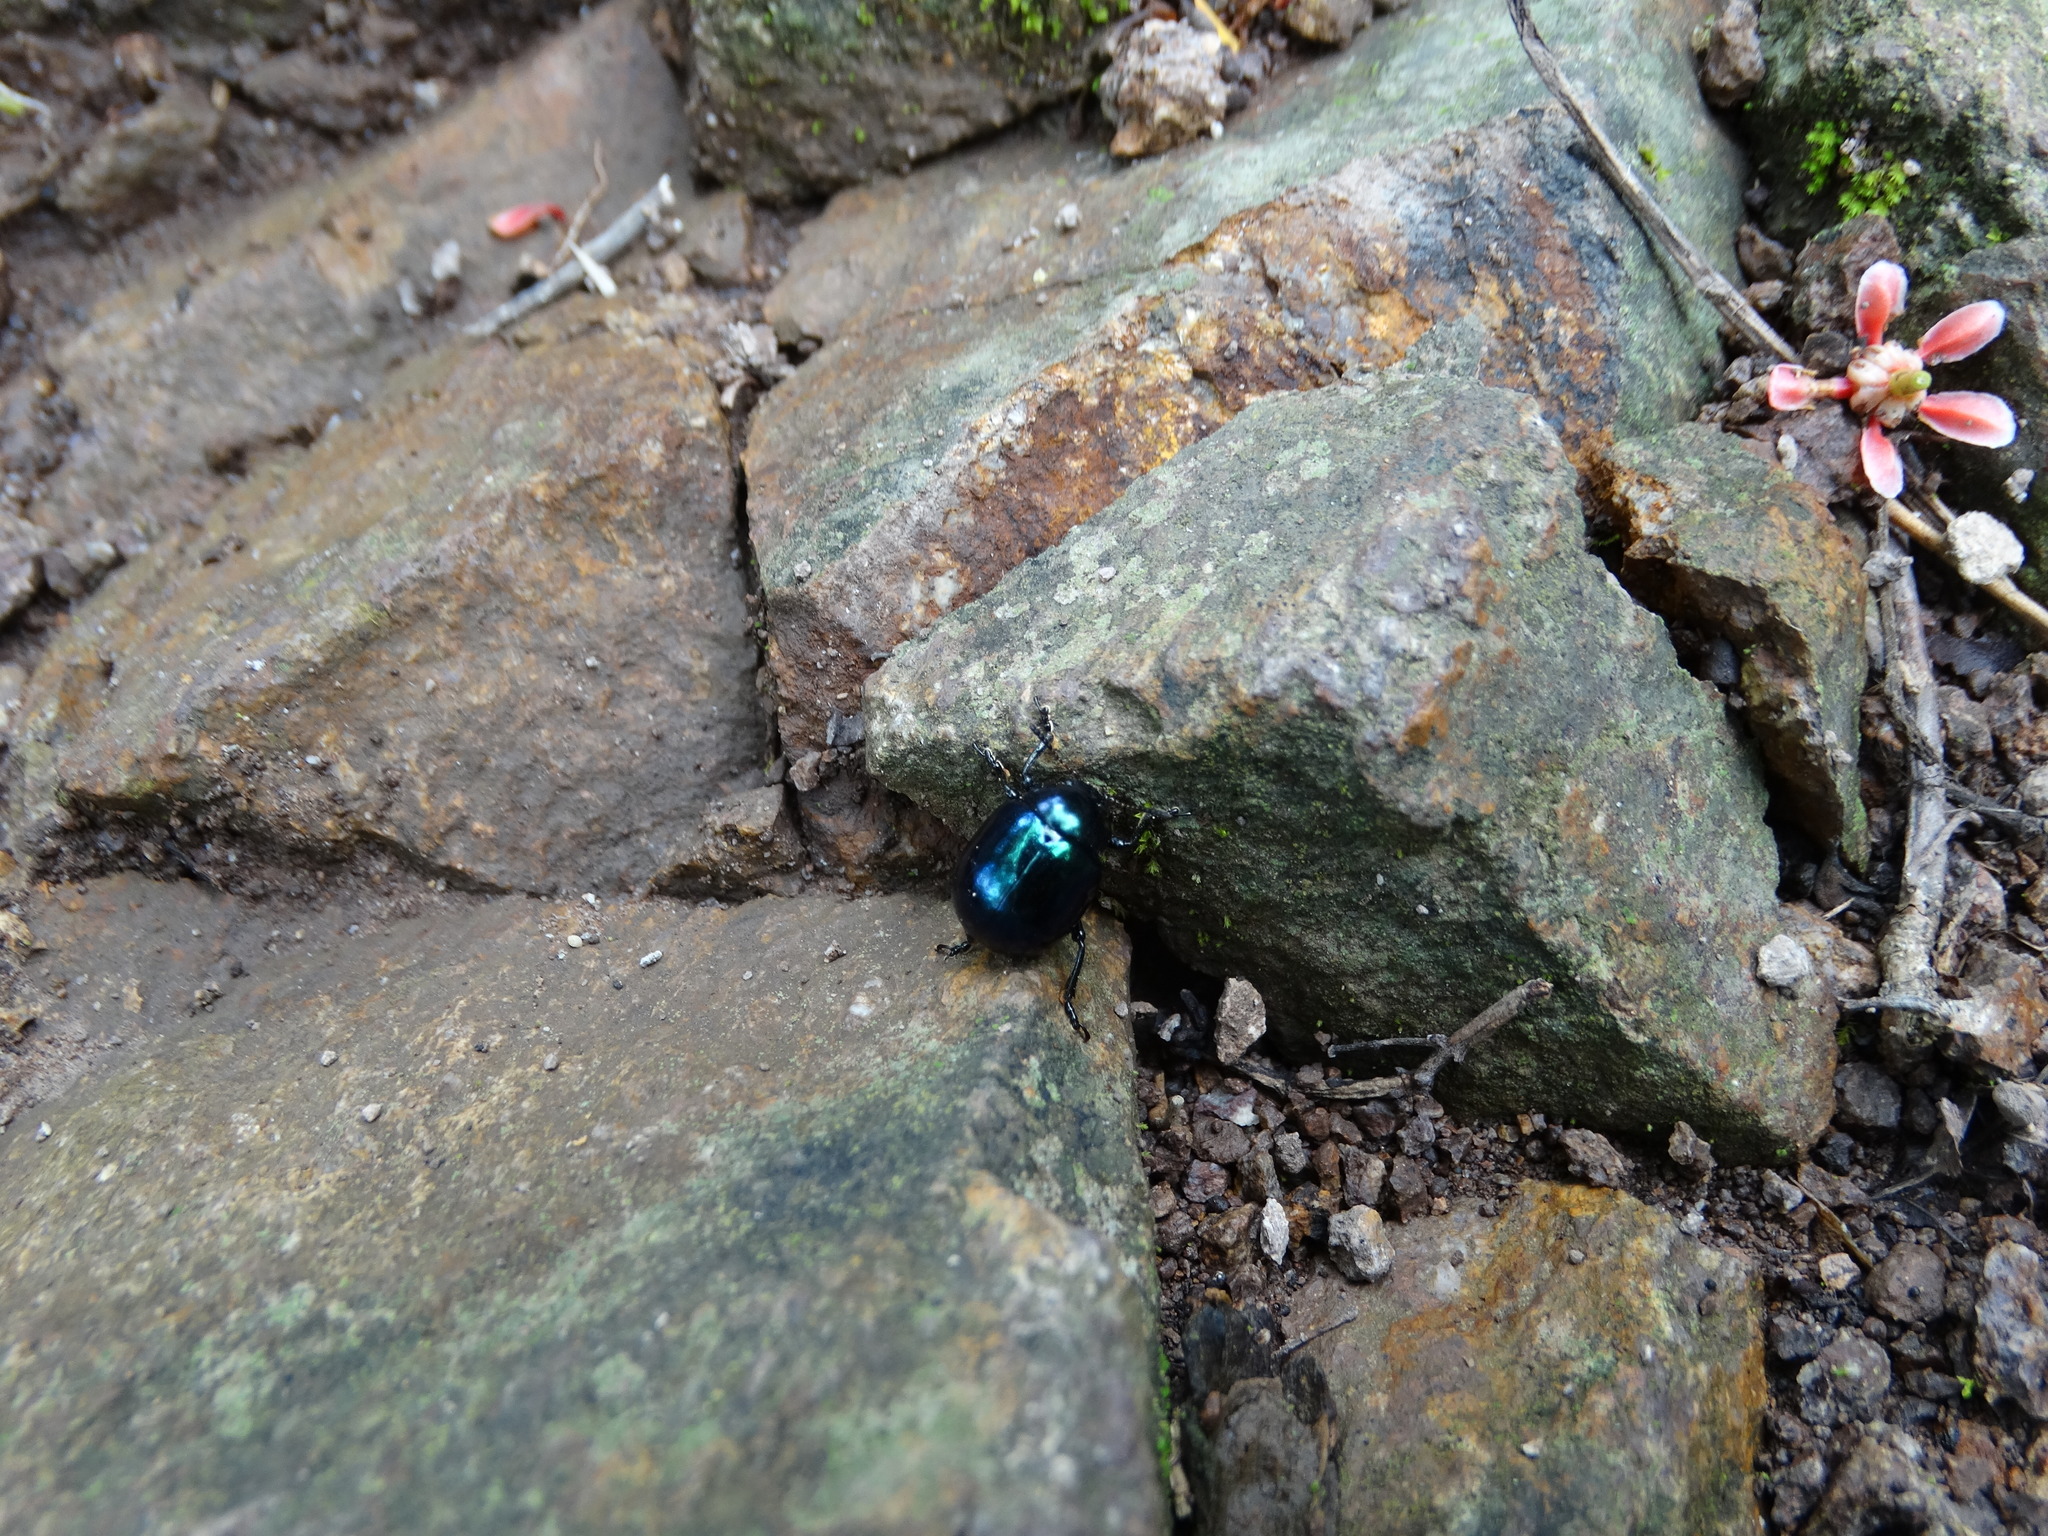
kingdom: Animalia
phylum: Arthropoda
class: Insecta
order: Coleoptera
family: Chrysomelidae
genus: Leptinotarsa
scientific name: Leptinotarsa haldemani
